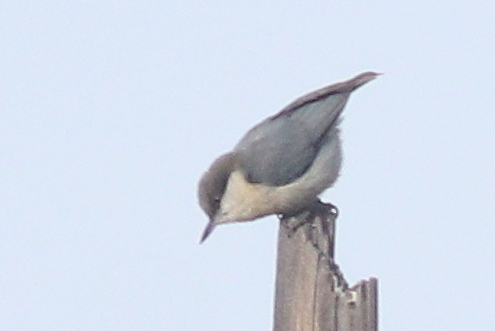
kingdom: Animalia
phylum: Chordata
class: Aves
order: Passeriformes
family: Sittidae
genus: Sitta
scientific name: Sitta pygmaea
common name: Pygmy nuthatch
